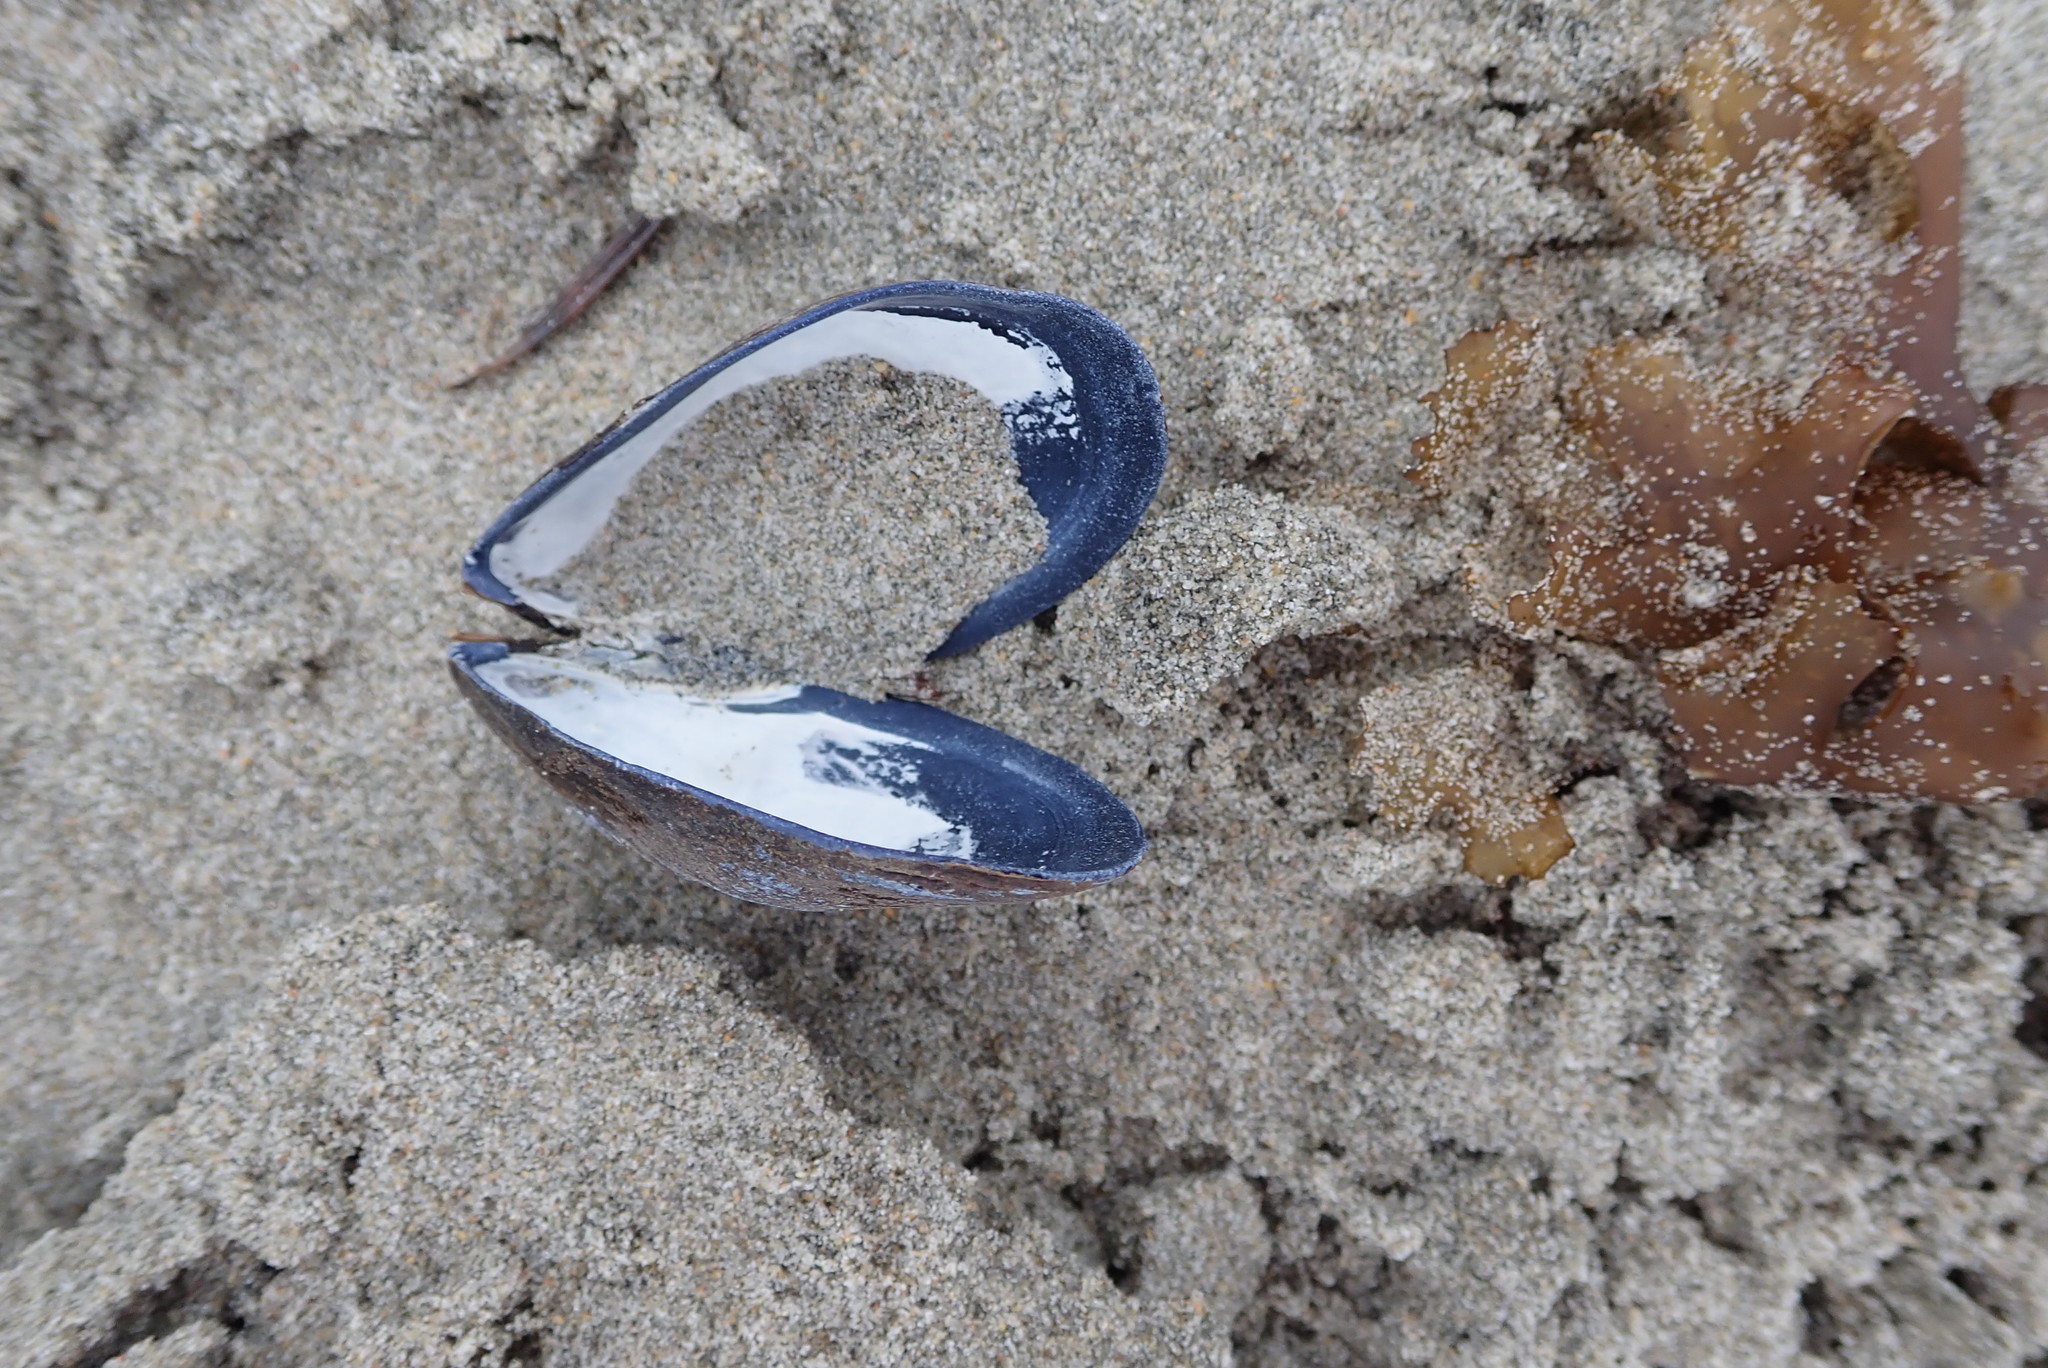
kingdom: Animalia
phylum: Mollusca
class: Bivalvia
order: Mytilida
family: Mytilidae
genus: Mytilus
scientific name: Mytilus edulis
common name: Blue mussel
